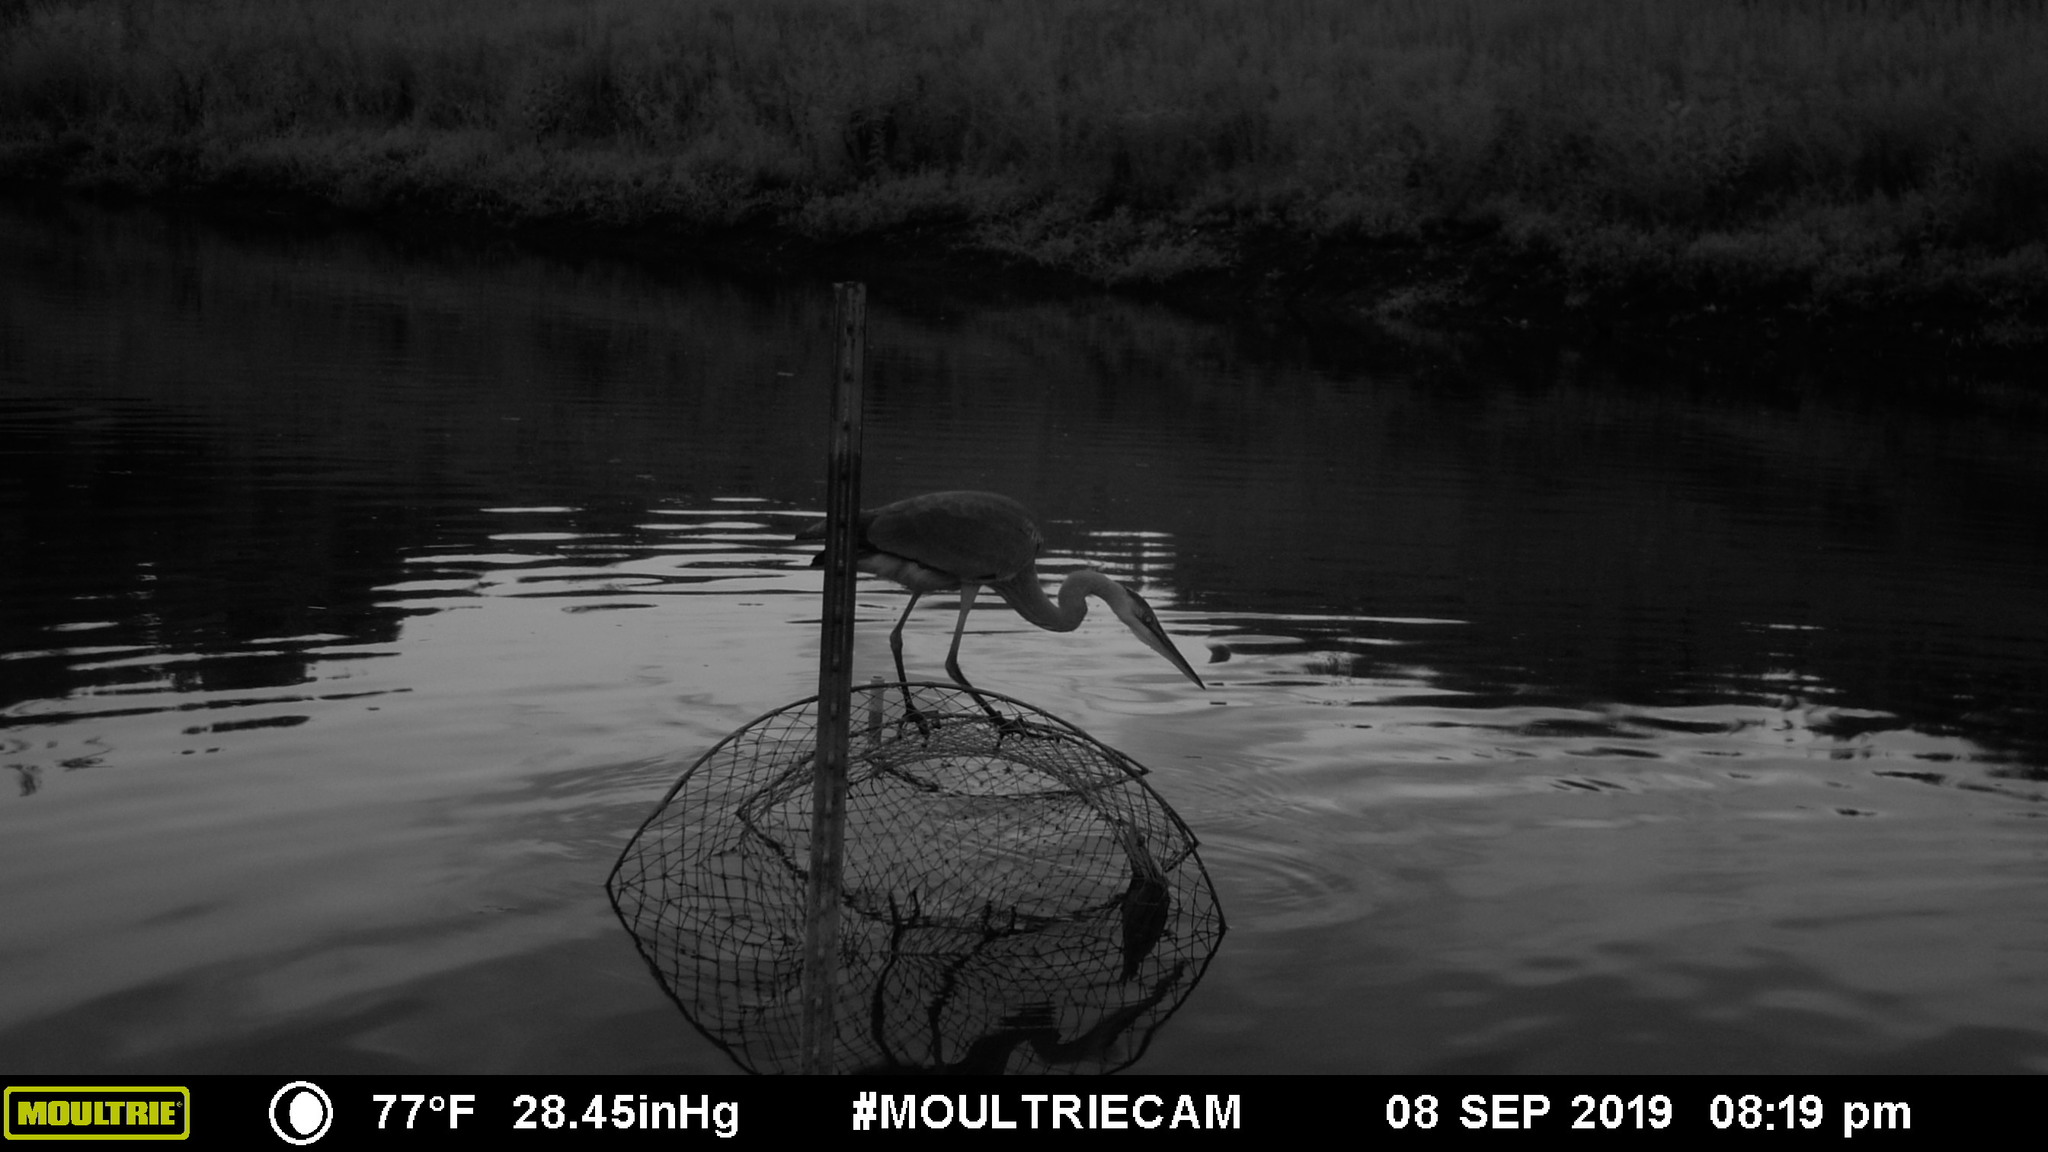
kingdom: Animalia
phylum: Chordata
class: Aves
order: Pelecaniformes
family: Ardeidae
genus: Ardea
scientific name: Ardea herodias
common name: Great blue heron
